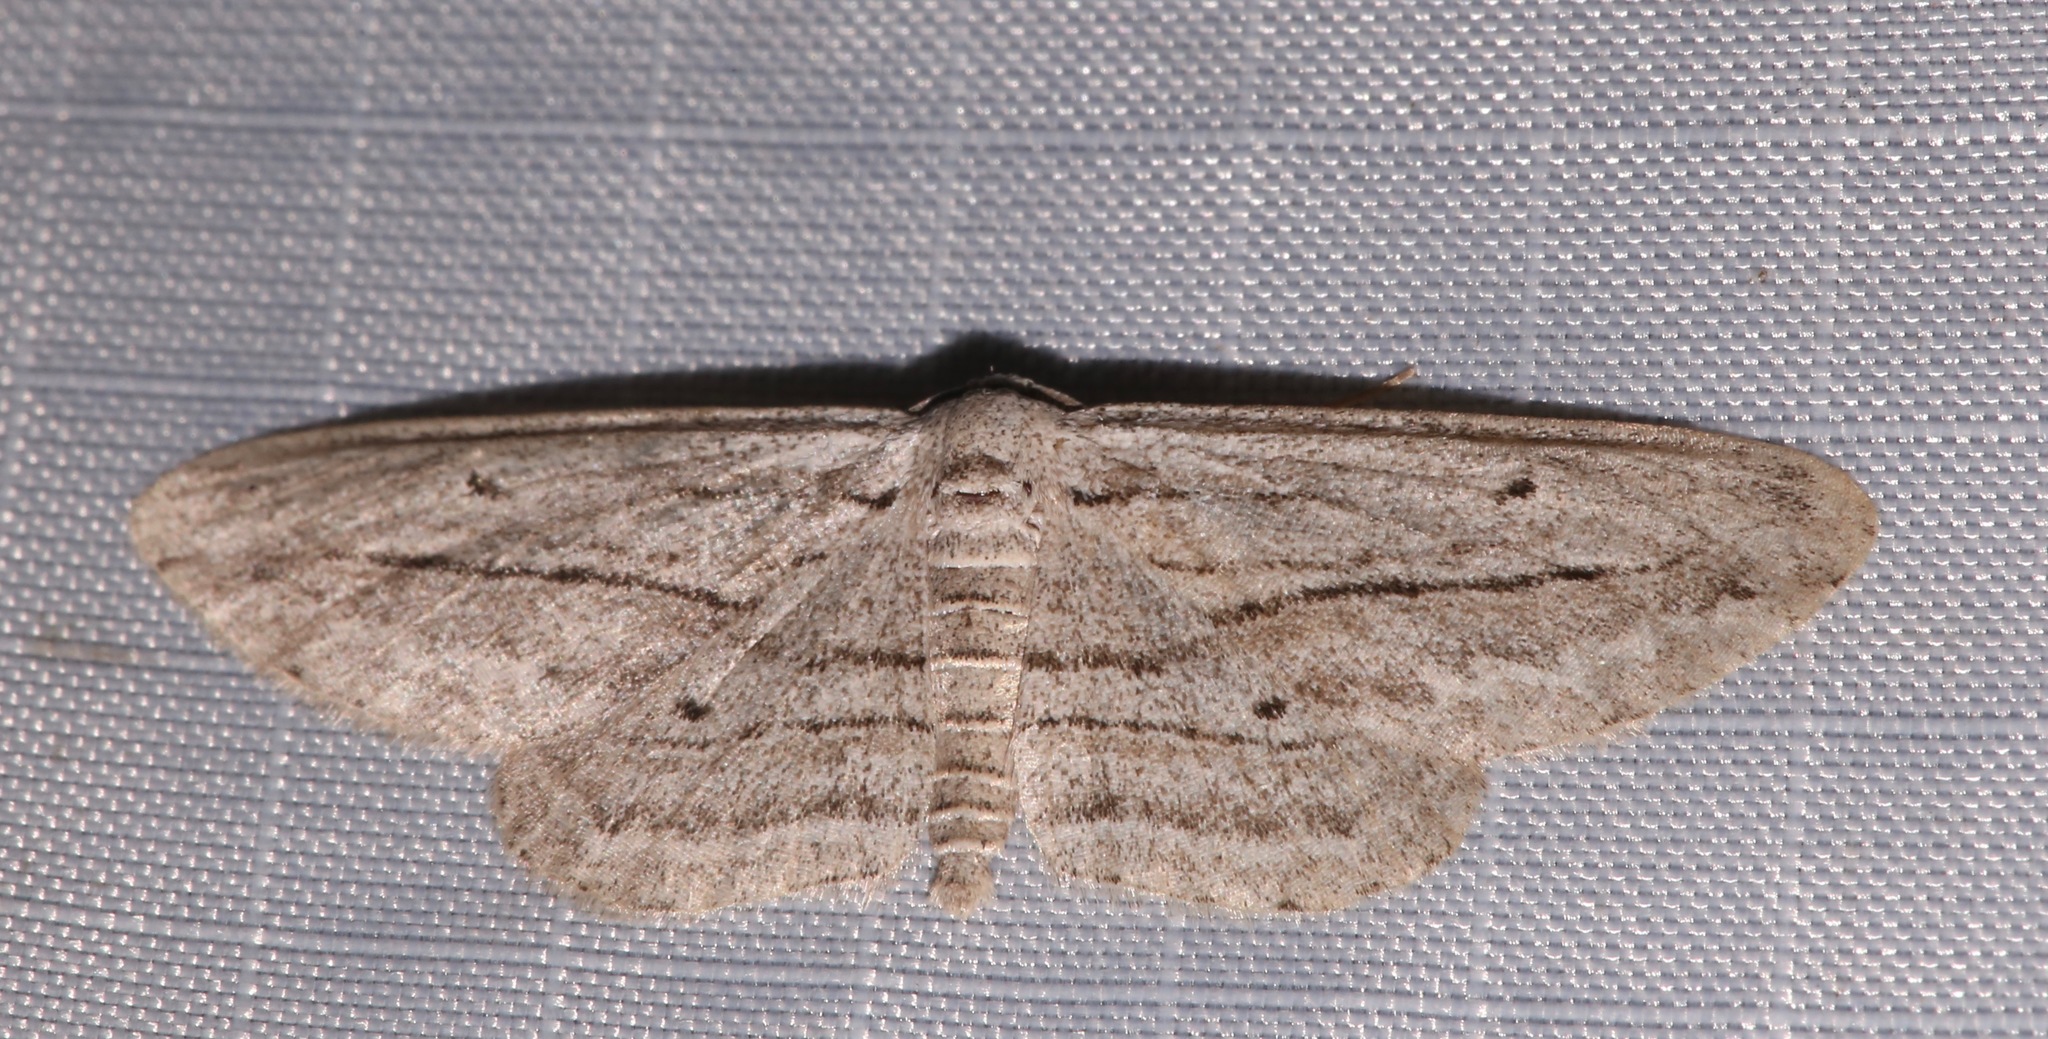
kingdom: Animalia
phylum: Arthropoda
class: Insecta
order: Lepidoptera
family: Geometridae
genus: Glena
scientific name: Glena quinquelinearia
